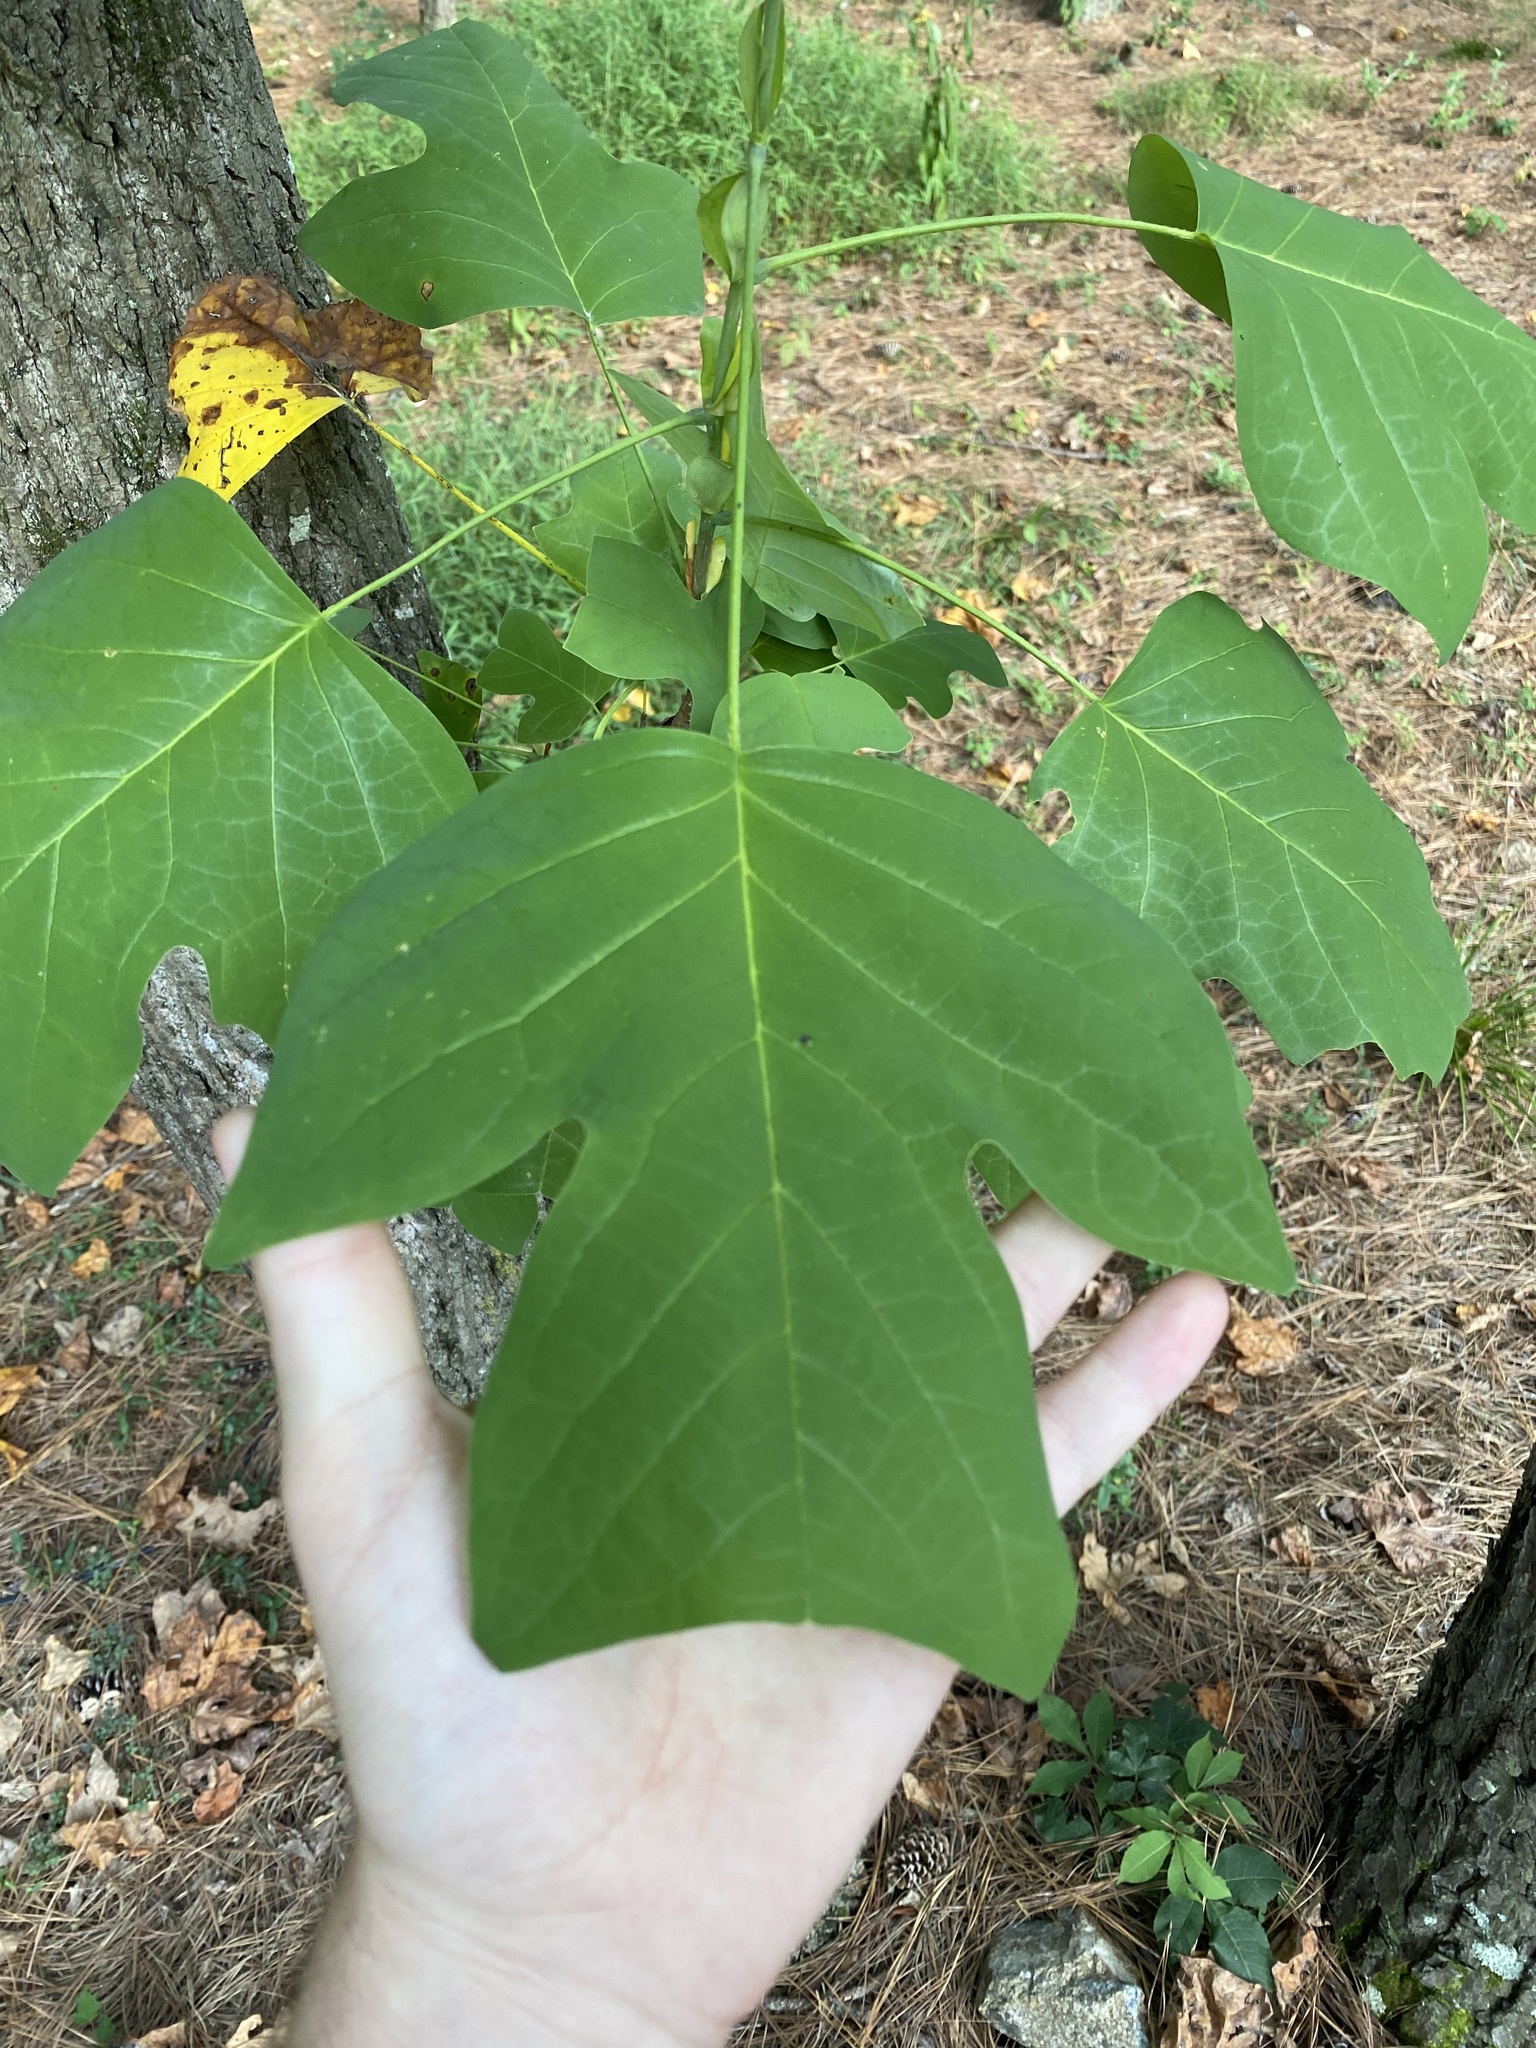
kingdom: Plantae
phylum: Tracheophyta
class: Magnoliopsida
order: Magnoliales
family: Magnoliaceae
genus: Liriodendron
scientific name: Liriodendron tulipifera
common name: Tulip tree
